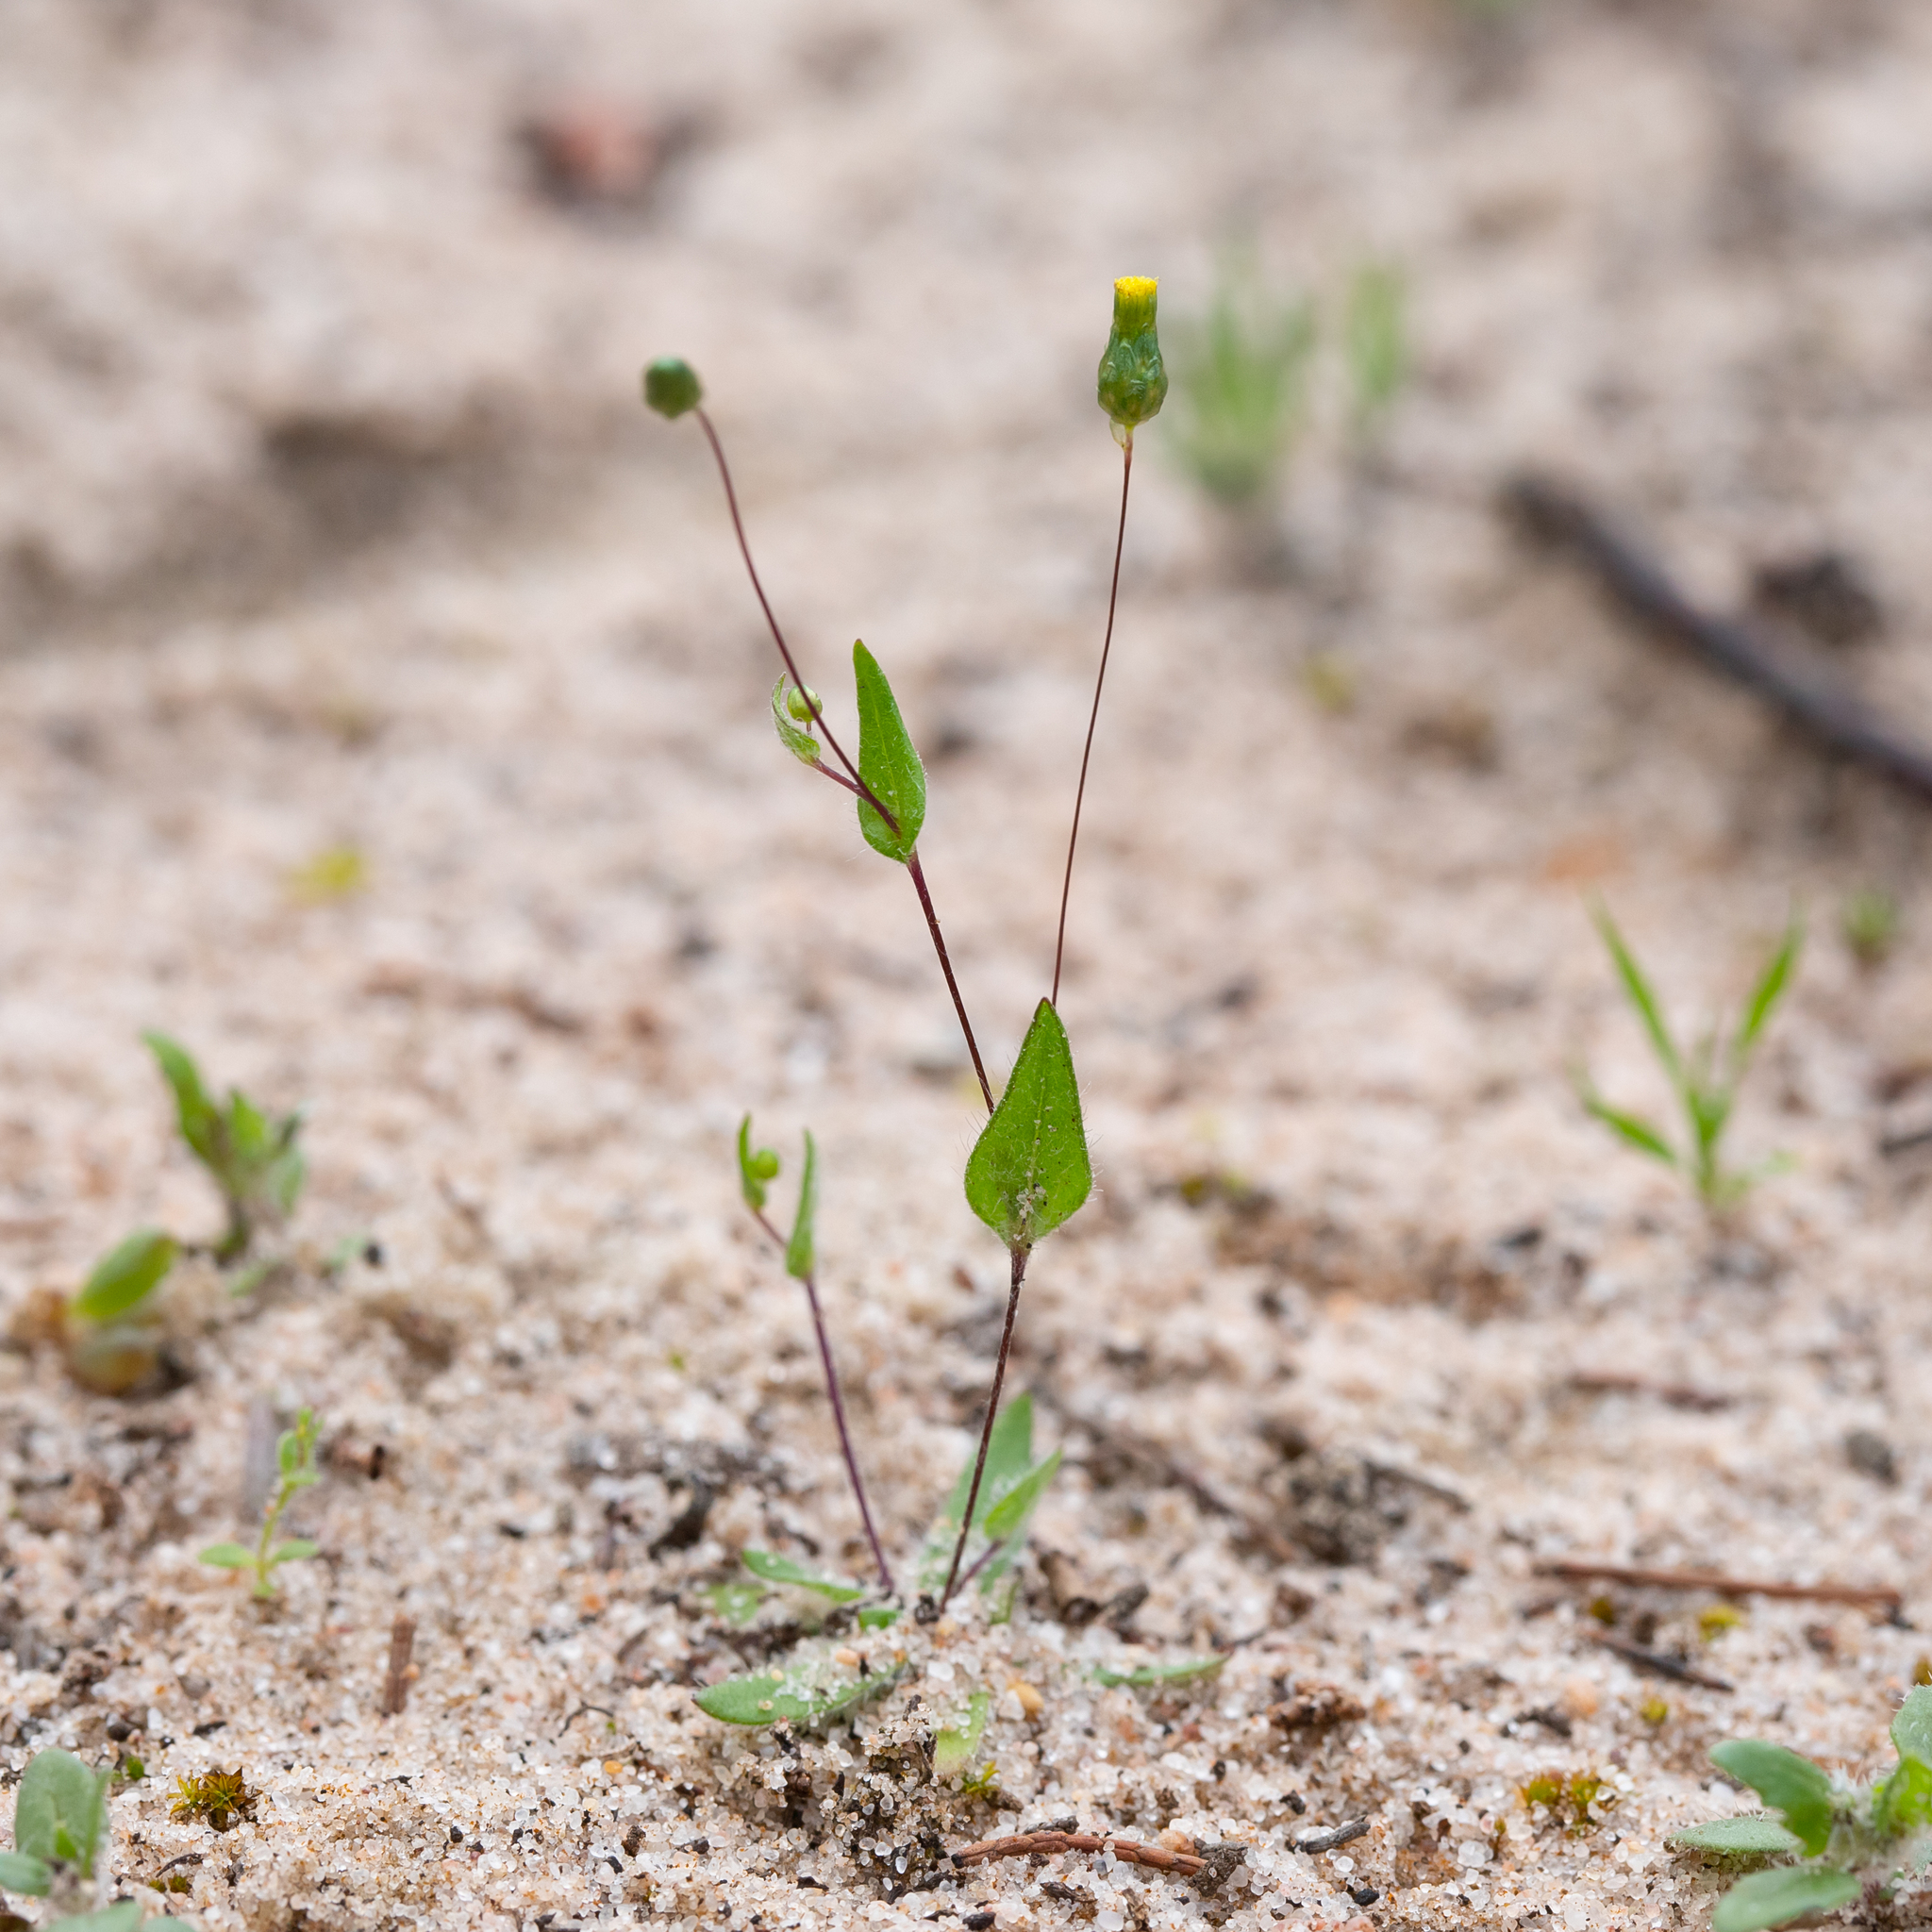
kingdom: Plantae
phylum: Tracheophyta
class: Magnoliopsida
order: Asterales
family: Asteraceae
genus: Panaetia
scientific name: Panaetia tepperi
